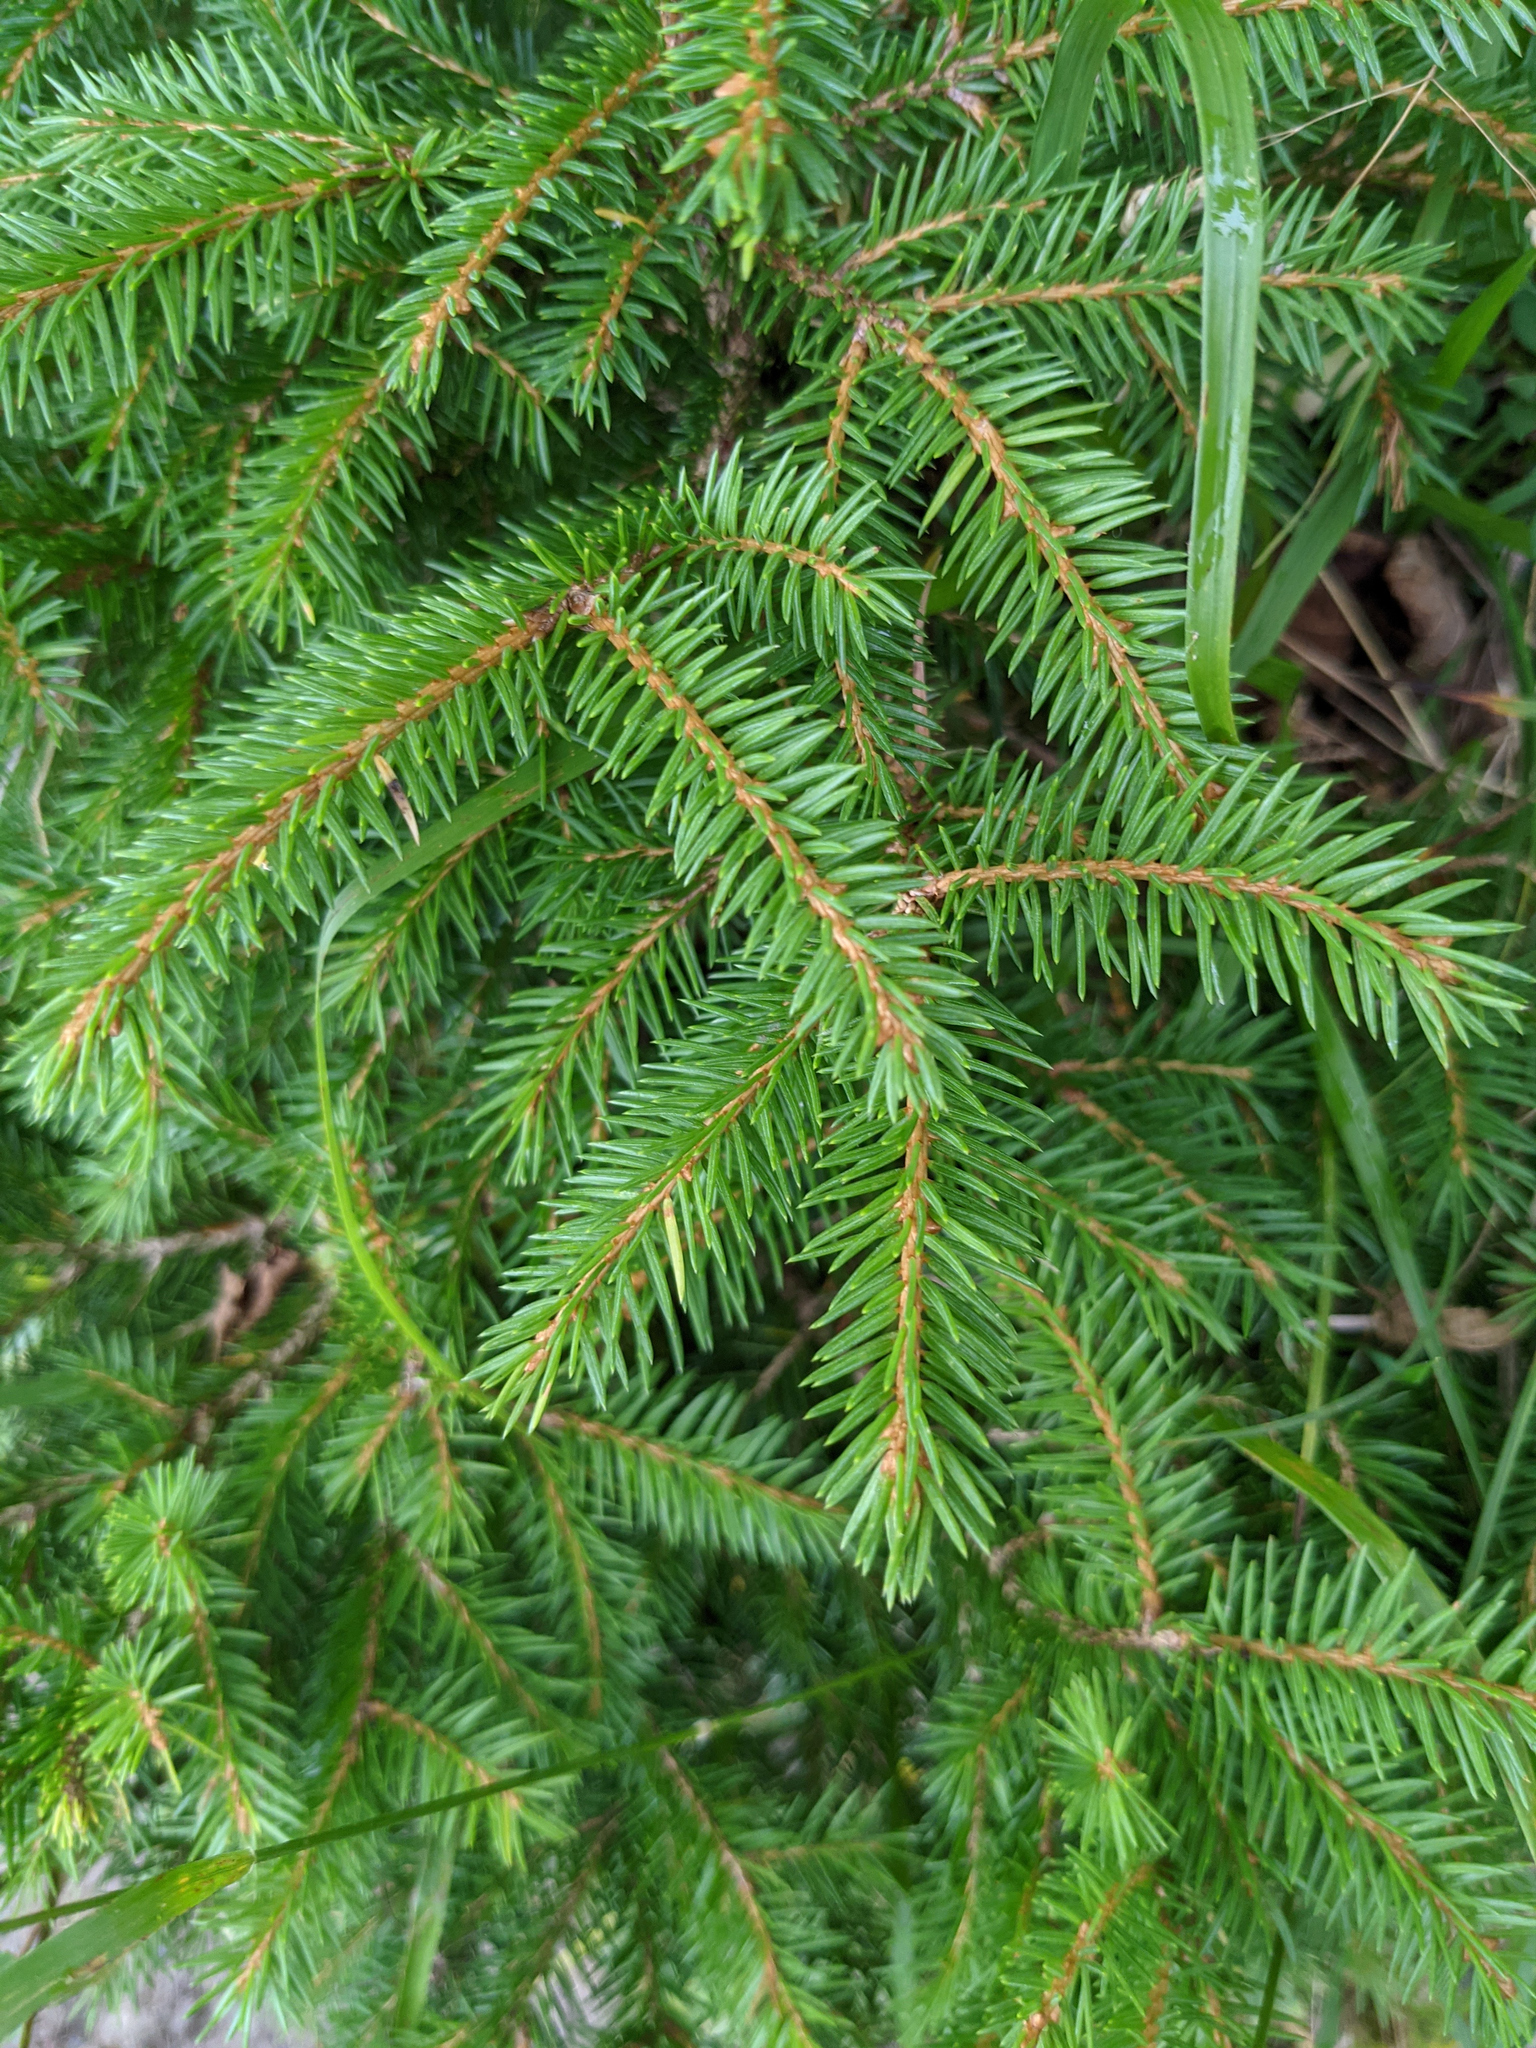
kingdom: Plantae
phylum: Tracheophyta
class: Pinopsida
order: Pinales
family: Pinaceae
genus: Picea
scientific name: Picea abies
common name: Norway spruce
